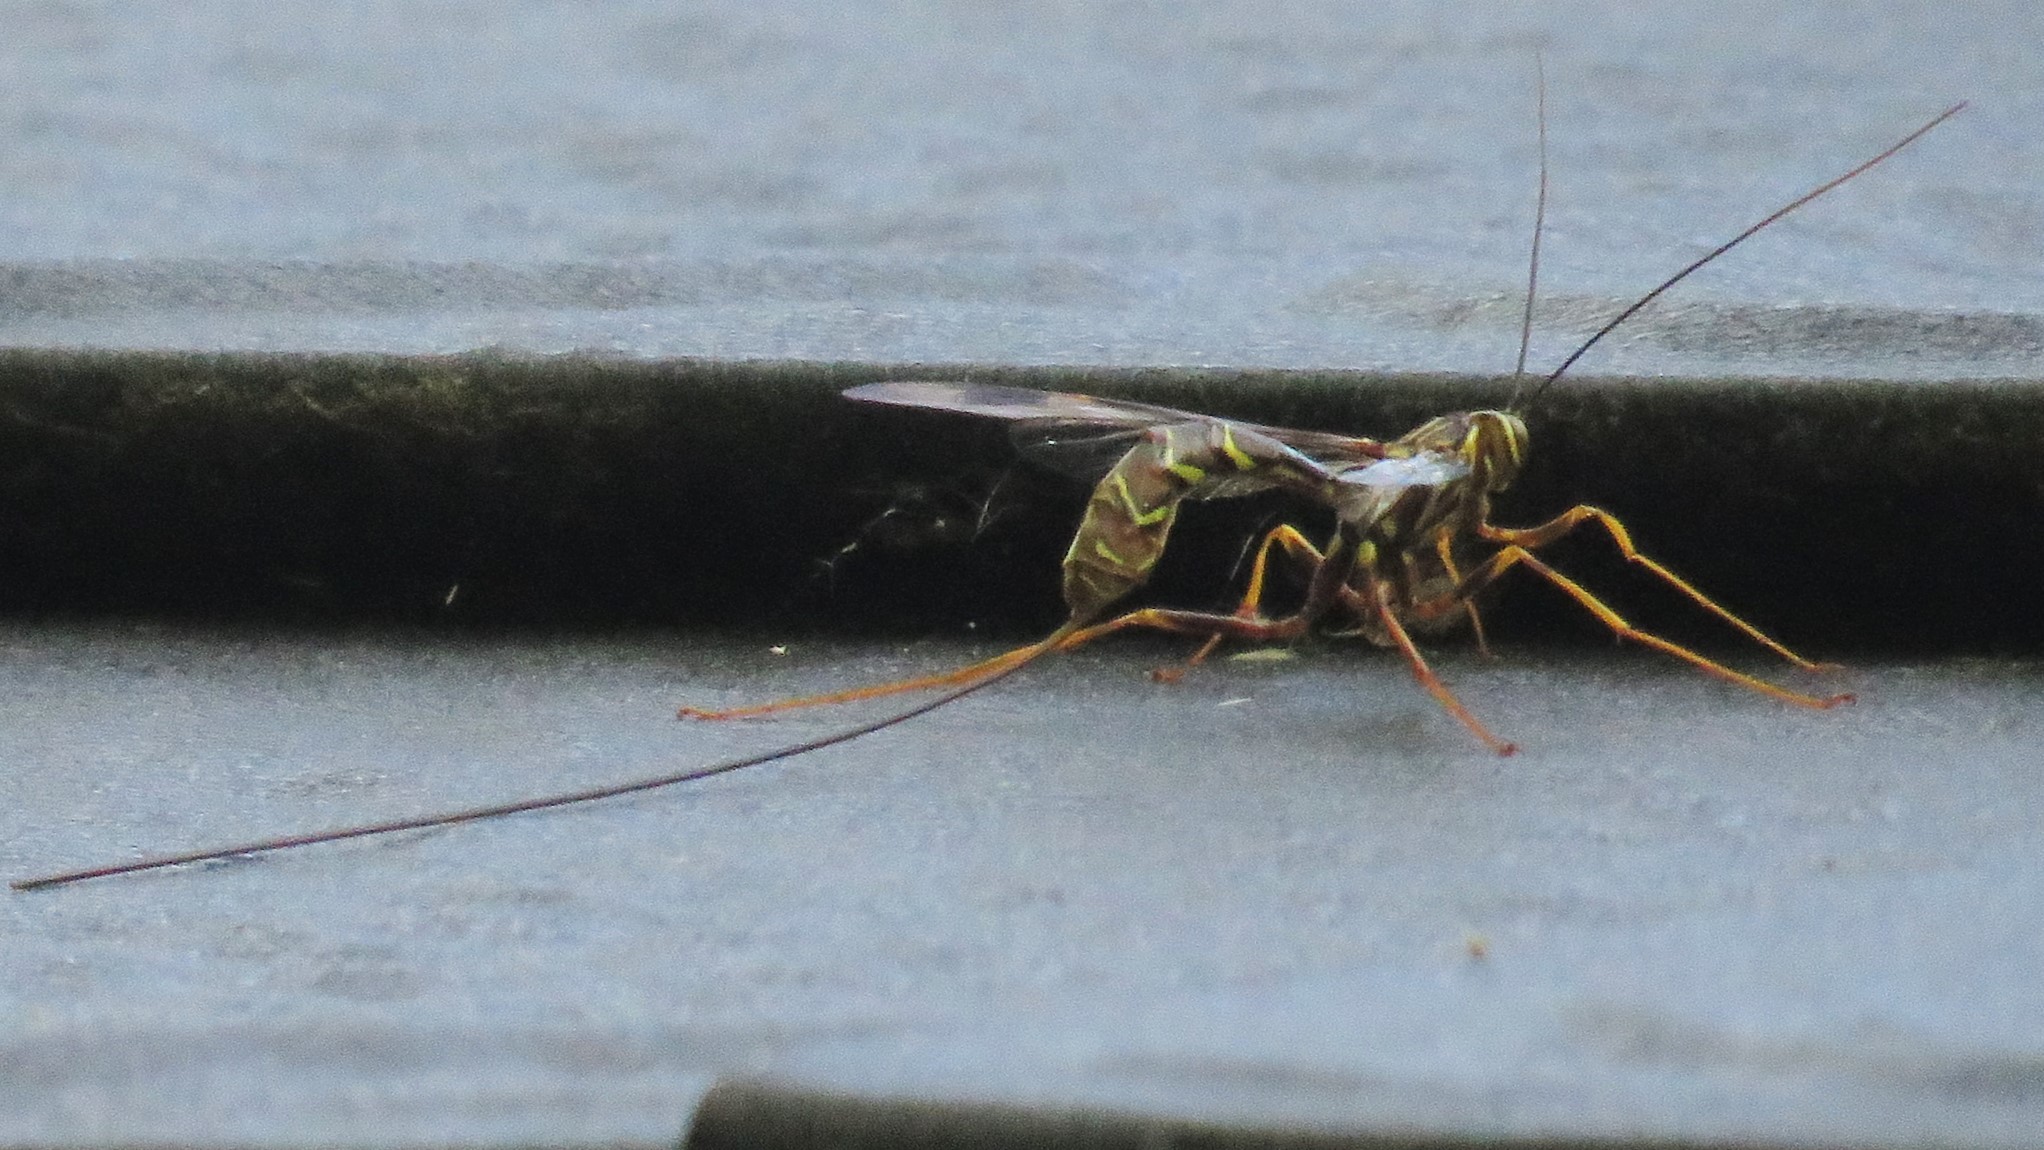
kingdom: Animalia
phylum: Arthropoda
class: Insecta
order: Hymenoptera
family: Ichneumonidae
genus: Megarhyssa
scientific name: Megarhyssa macrura
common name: Long-tailed giant ichneumonid wasp
